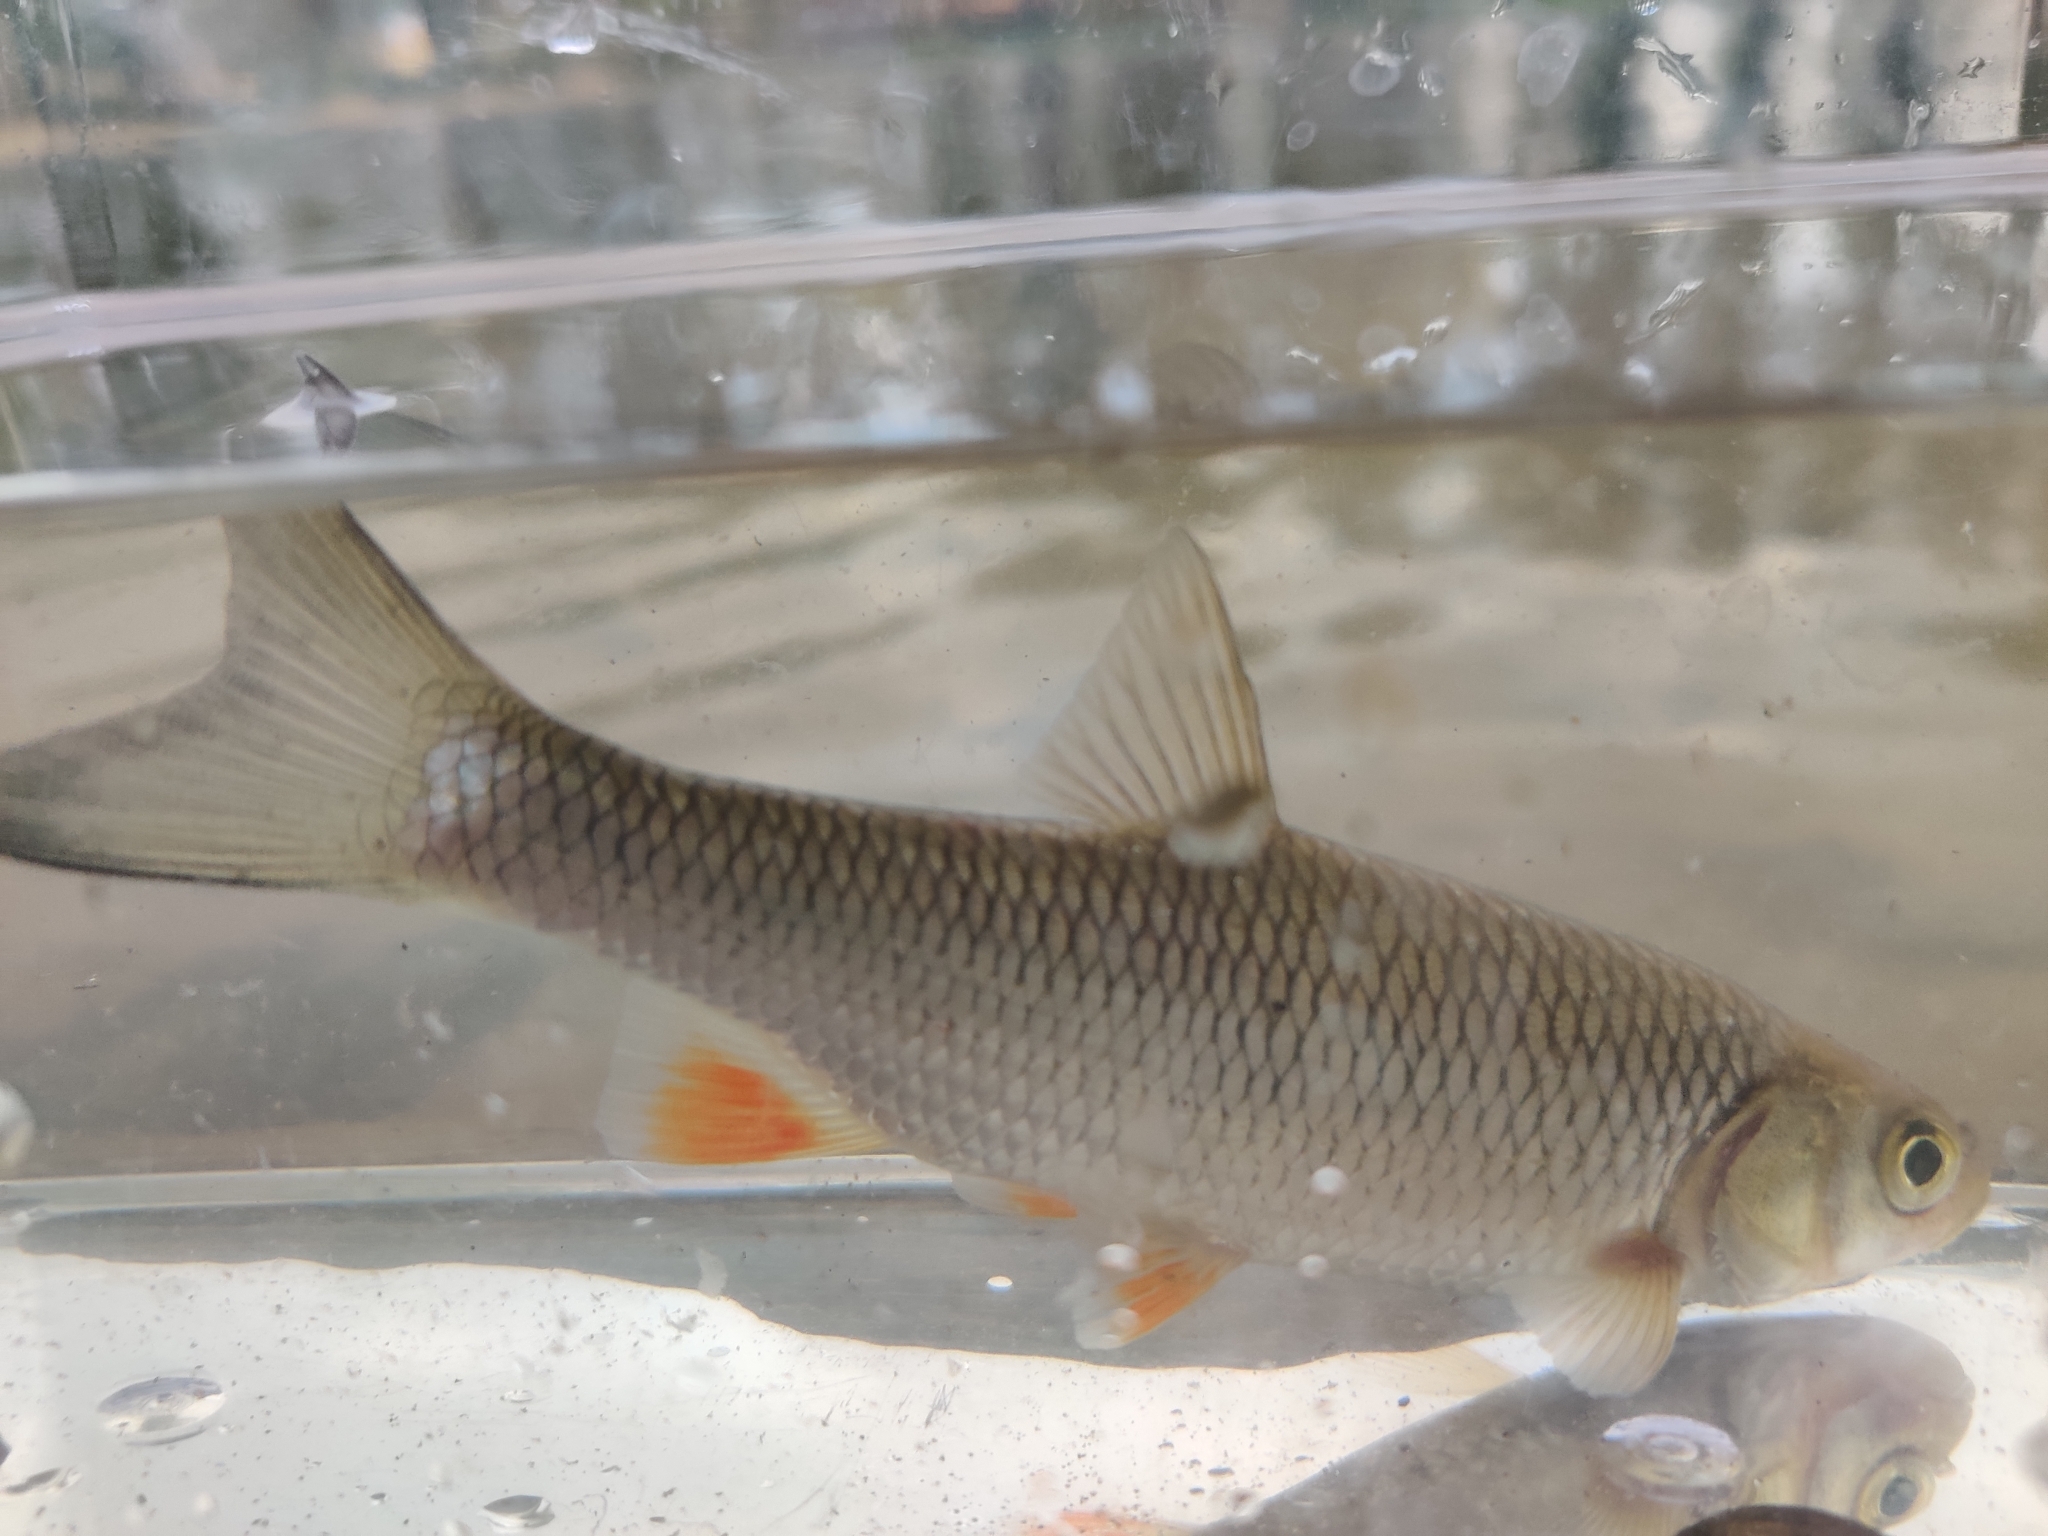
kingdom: Animalia
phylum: Chordata
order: Cypriniformes
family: Cyprinidae
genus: Squalius
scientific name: Squalius cephalus
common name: Chub
